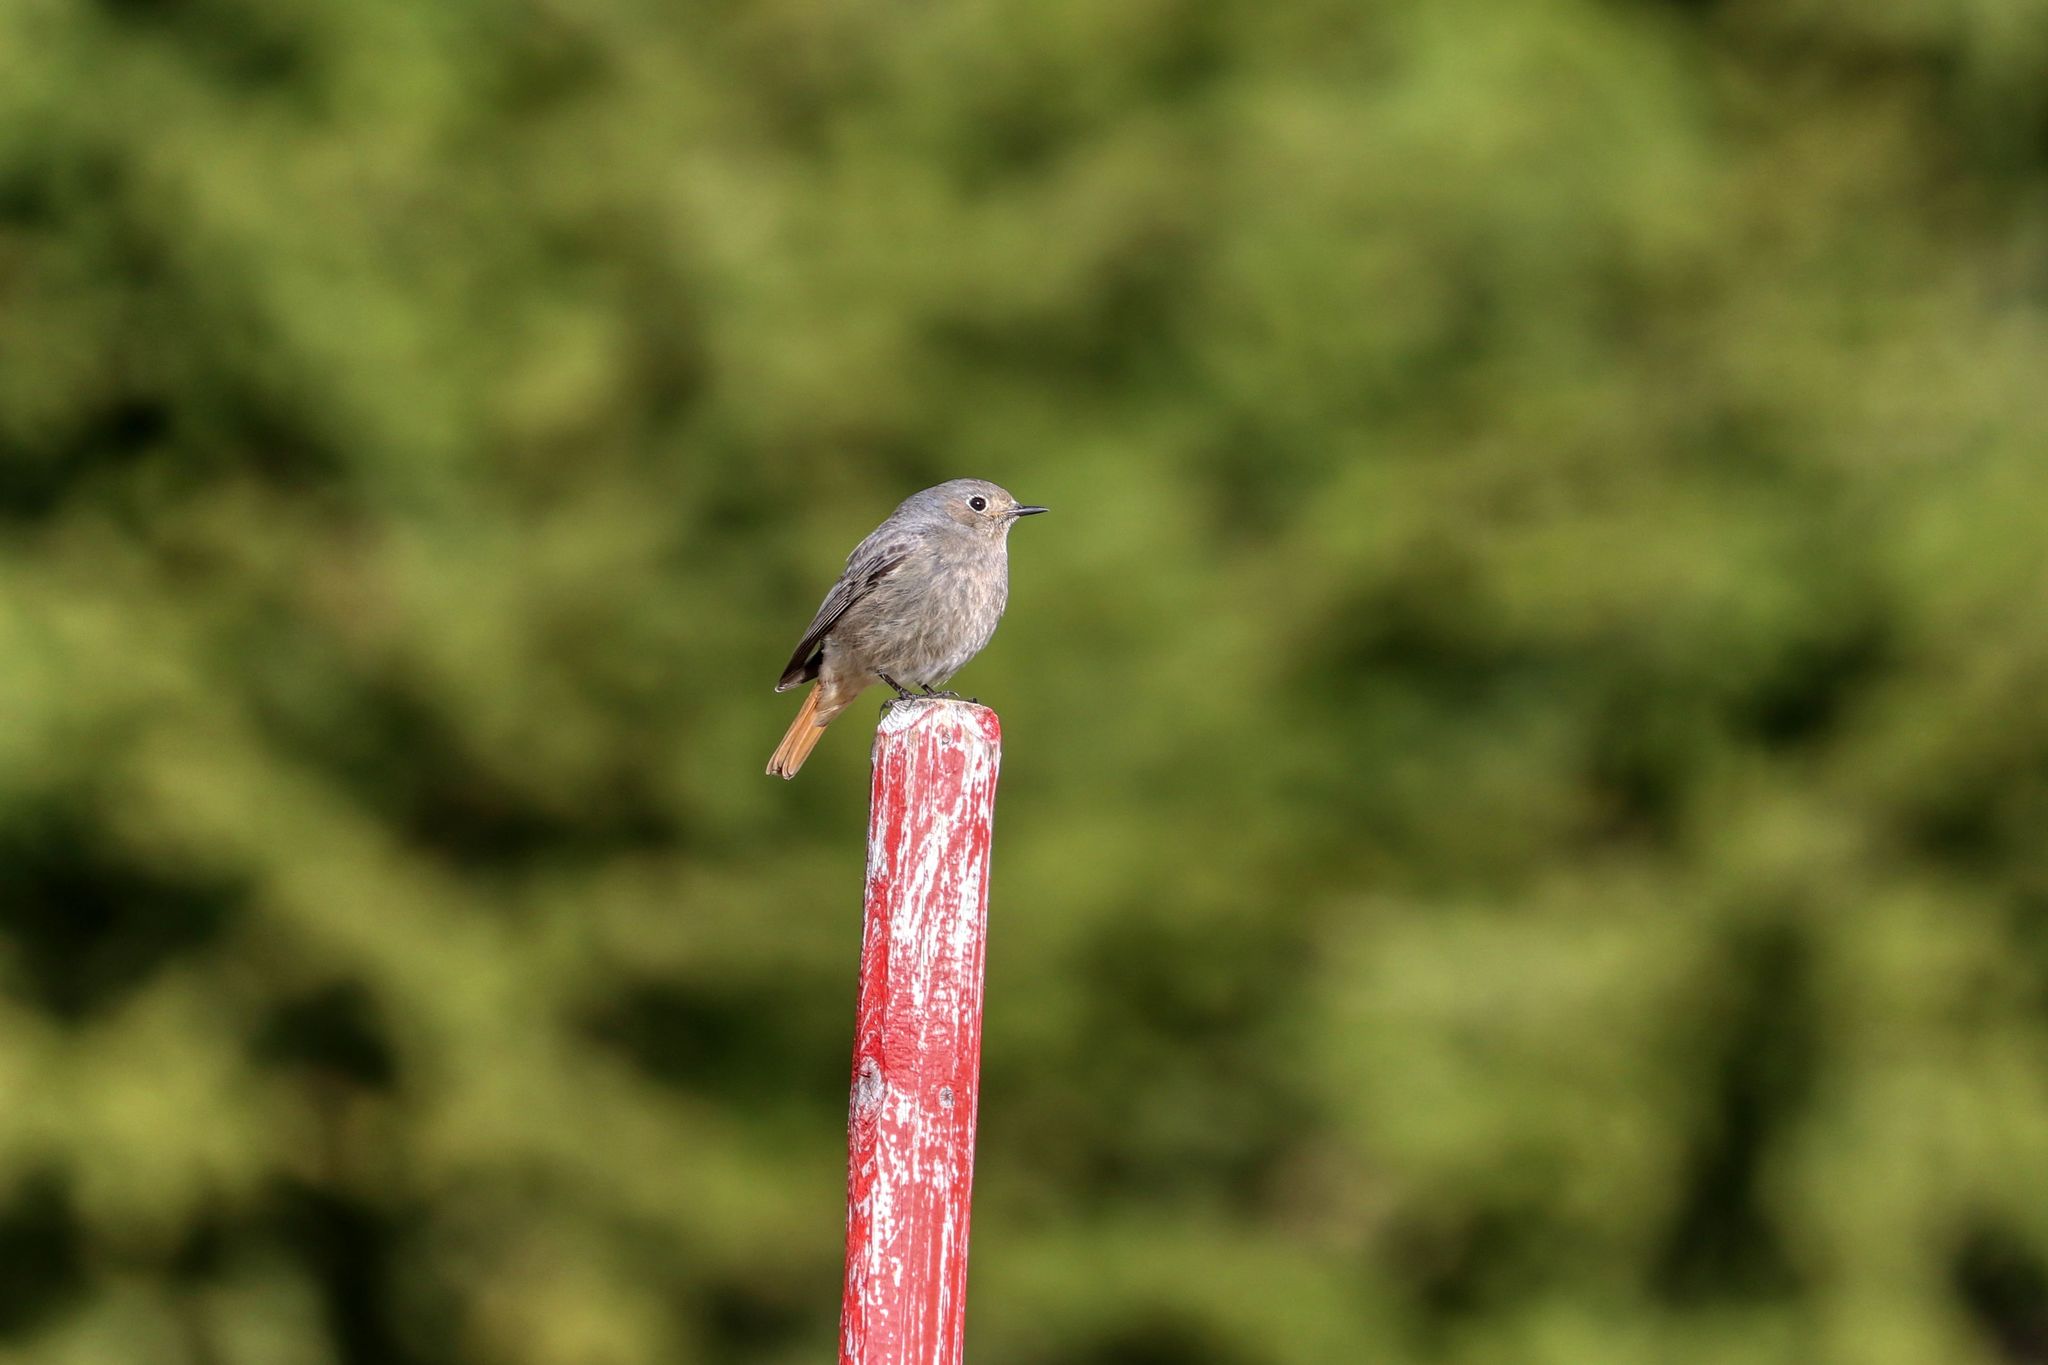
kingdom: Animalia
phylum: Chordata
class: Aves
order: Passeriformes
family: Muscicapidae
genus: Phoenicurus
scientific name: Phoenicurus ochruros
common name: Black redstart
